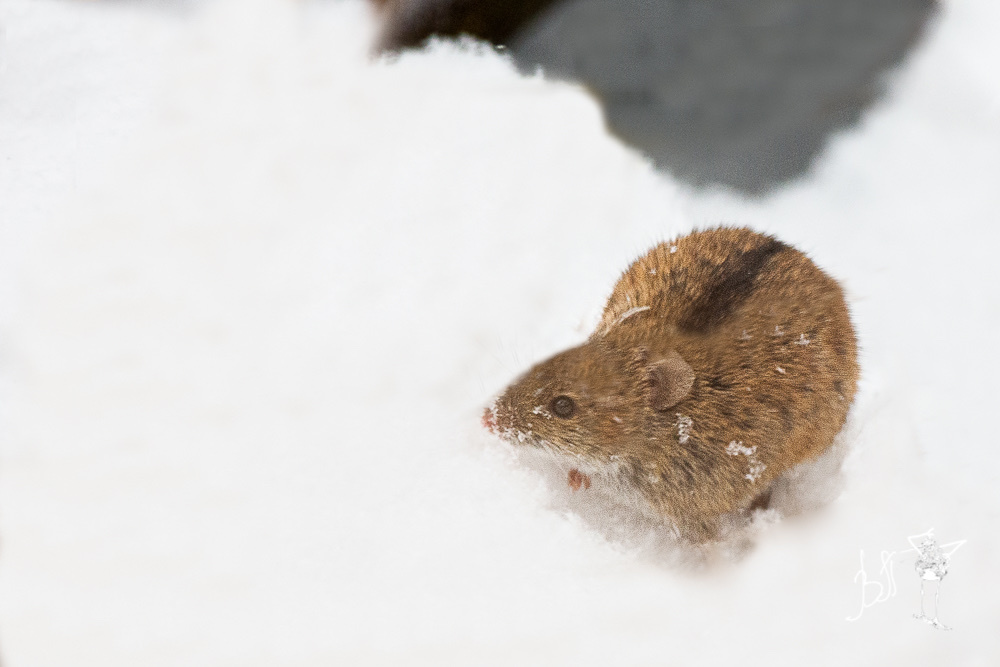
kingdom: Animalia
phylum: Chordata
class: Mammalia
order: Rodentia
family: Muridae
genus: Apodemus
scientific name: Apodemus agrarius
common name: Striped field mouse
